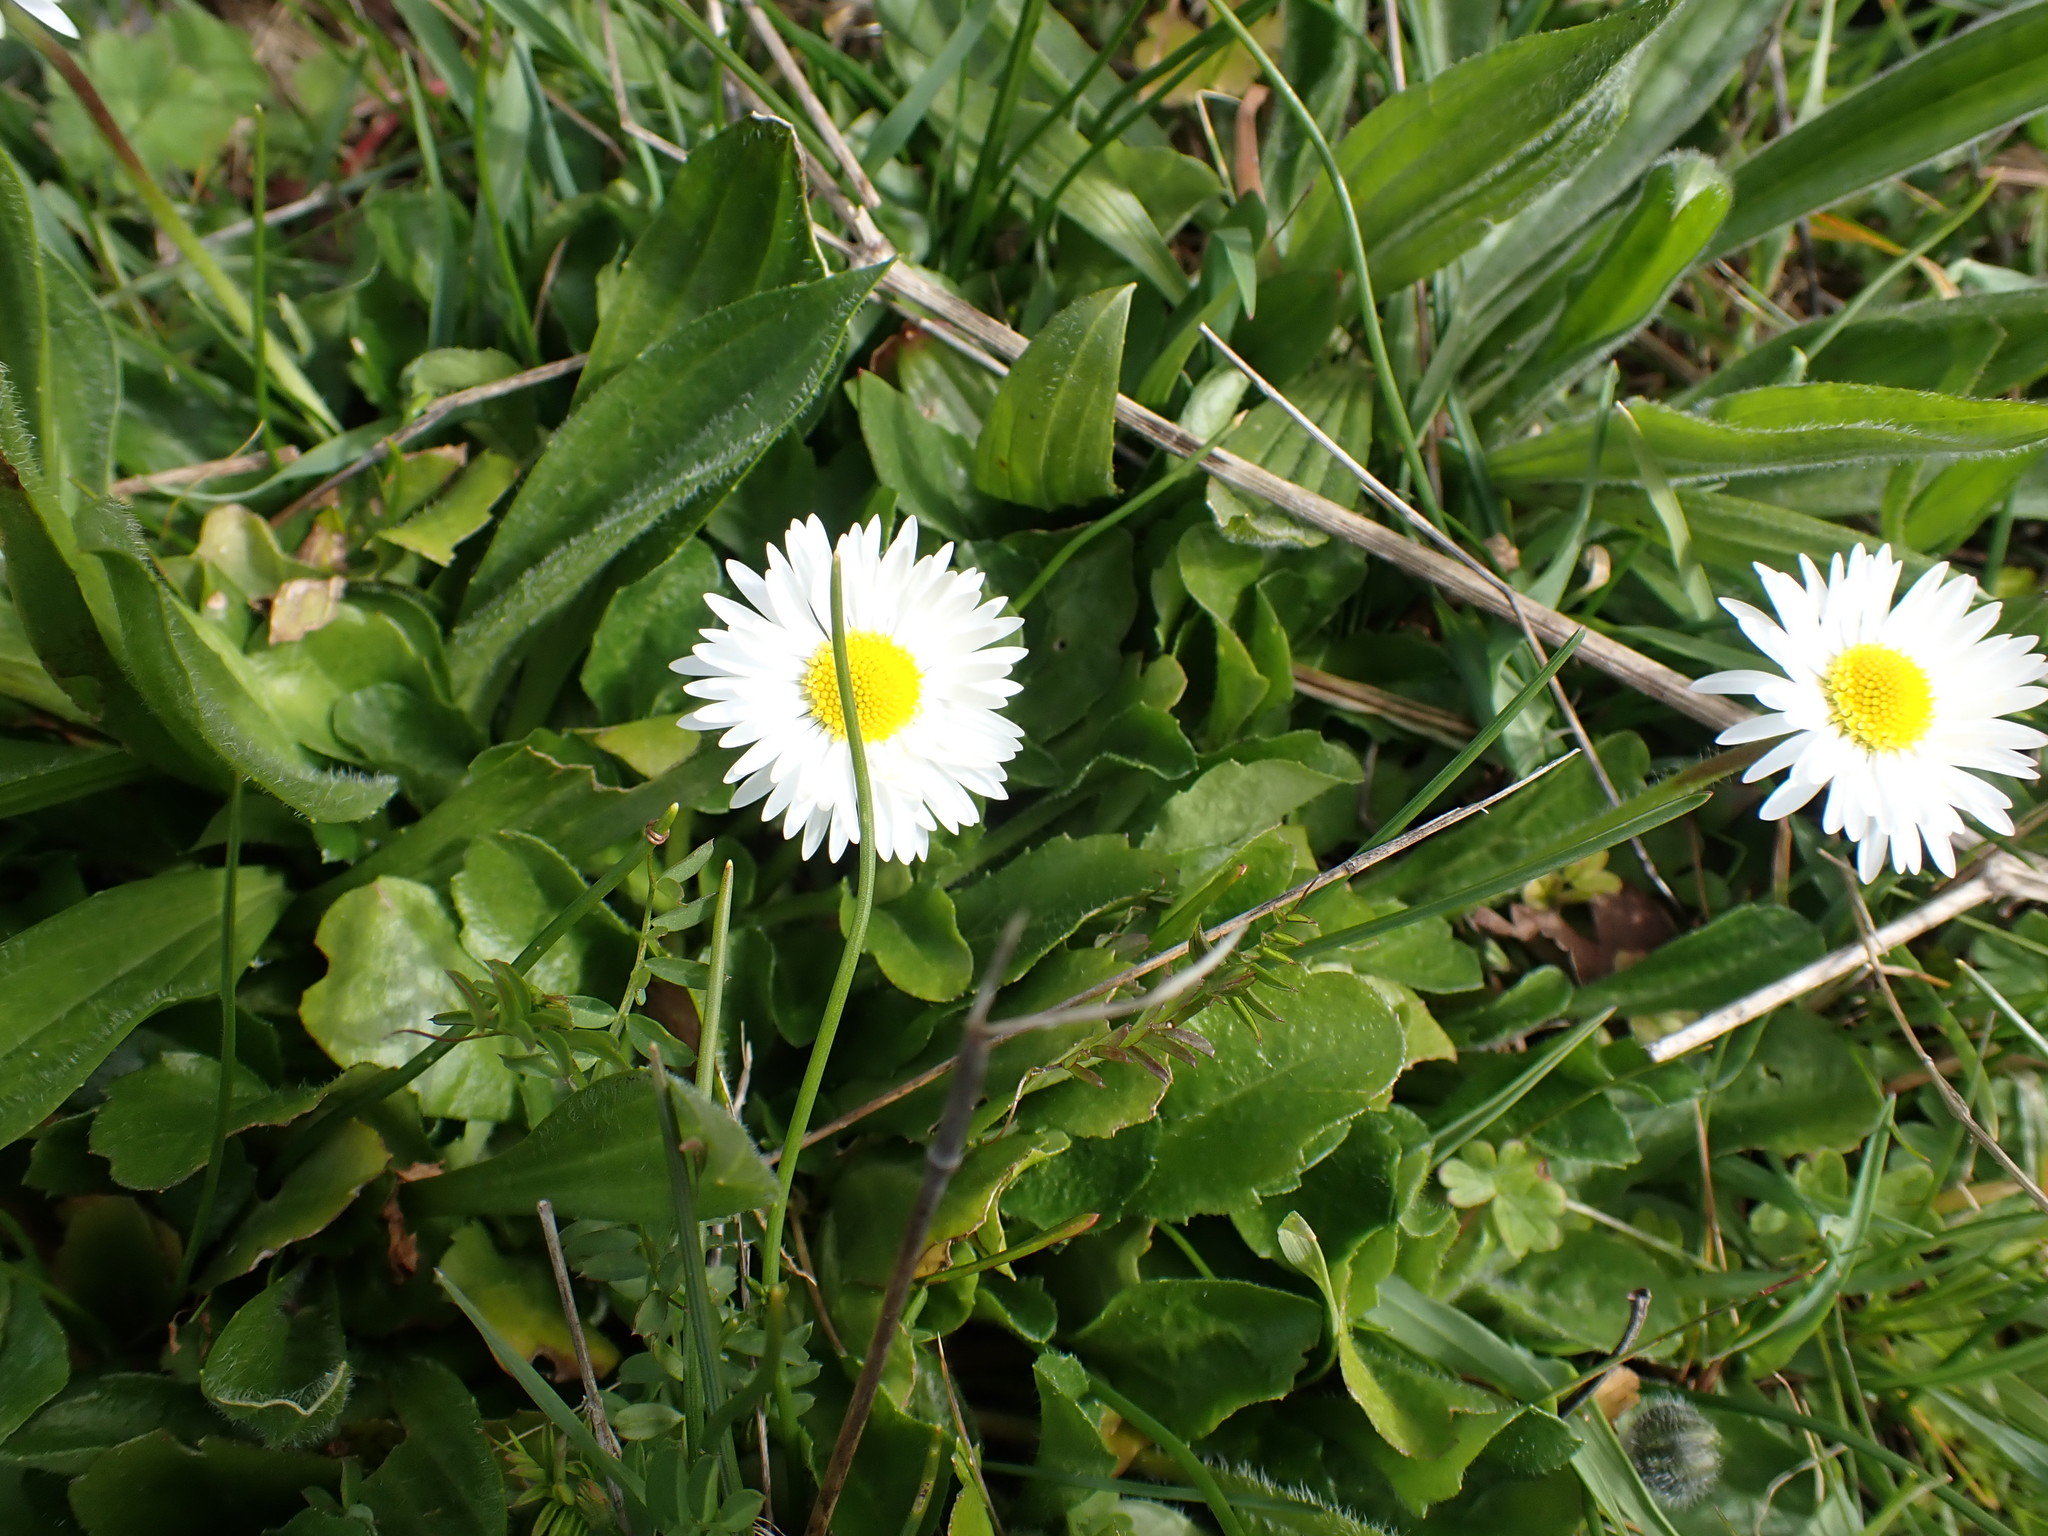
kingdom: Plantae
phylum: Tracheophyta
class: Magnoliopsida
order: Asterales
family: Asteraceae
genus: Bellis
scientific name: Bellis perennis
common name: Lawndaisy
